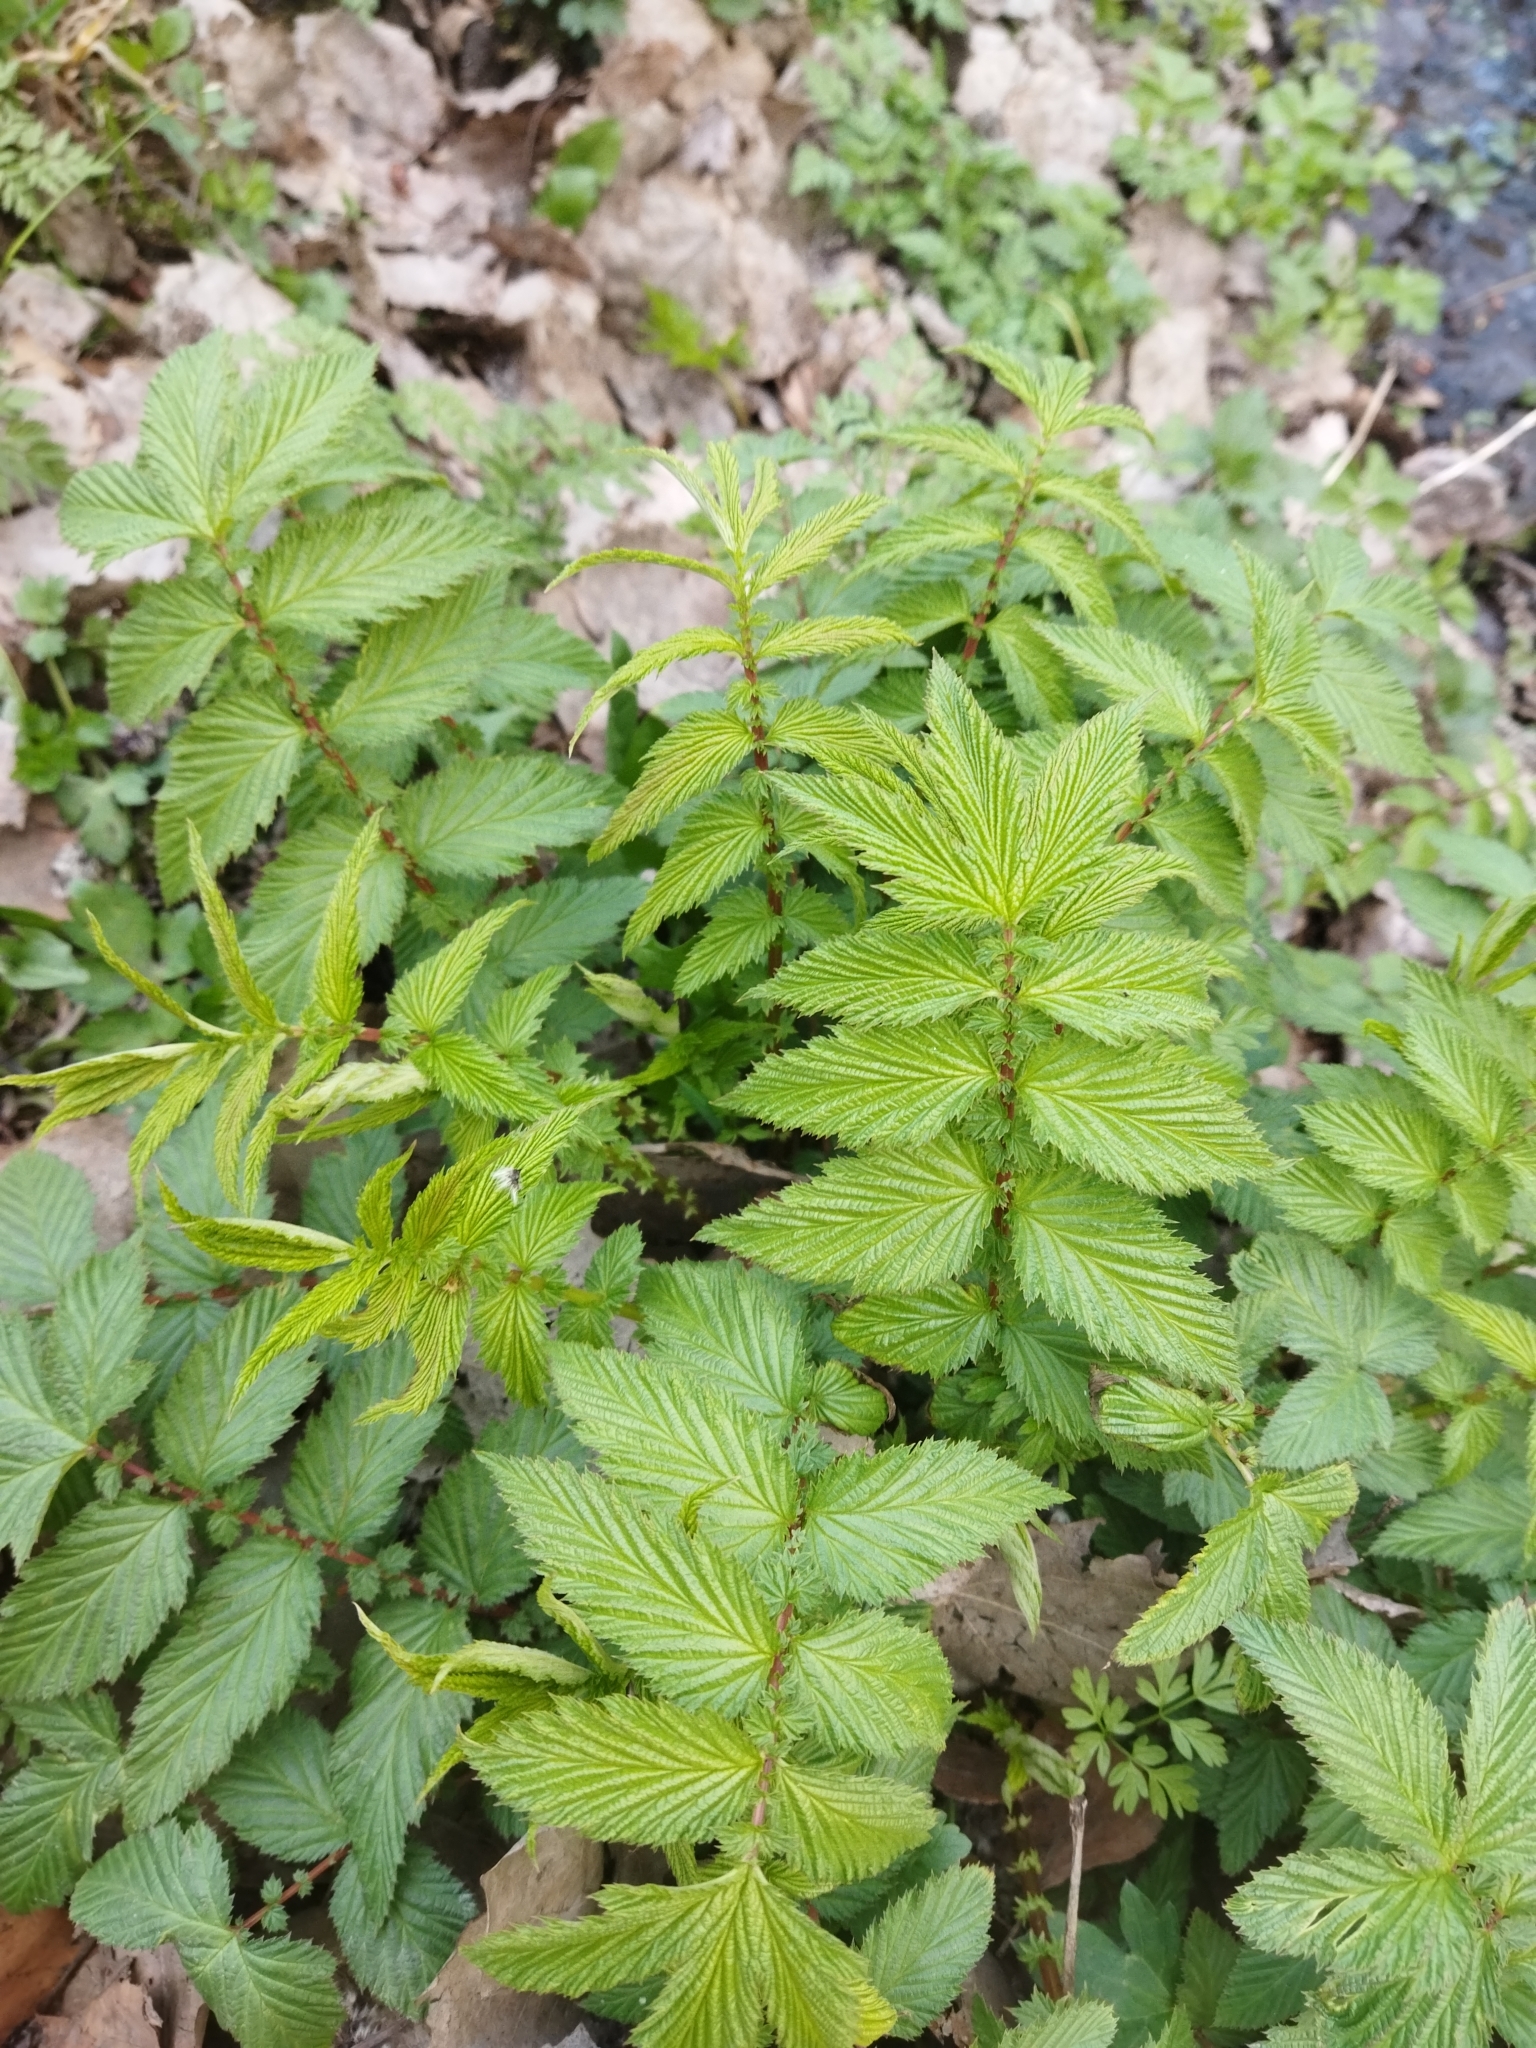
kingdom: Plantae
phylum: Tracheophyta
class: Magnoliopsida
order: Rosales
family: Rosaceae
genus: Filipendula
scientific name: Filipendula ulmaria
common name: Meadowsweet
